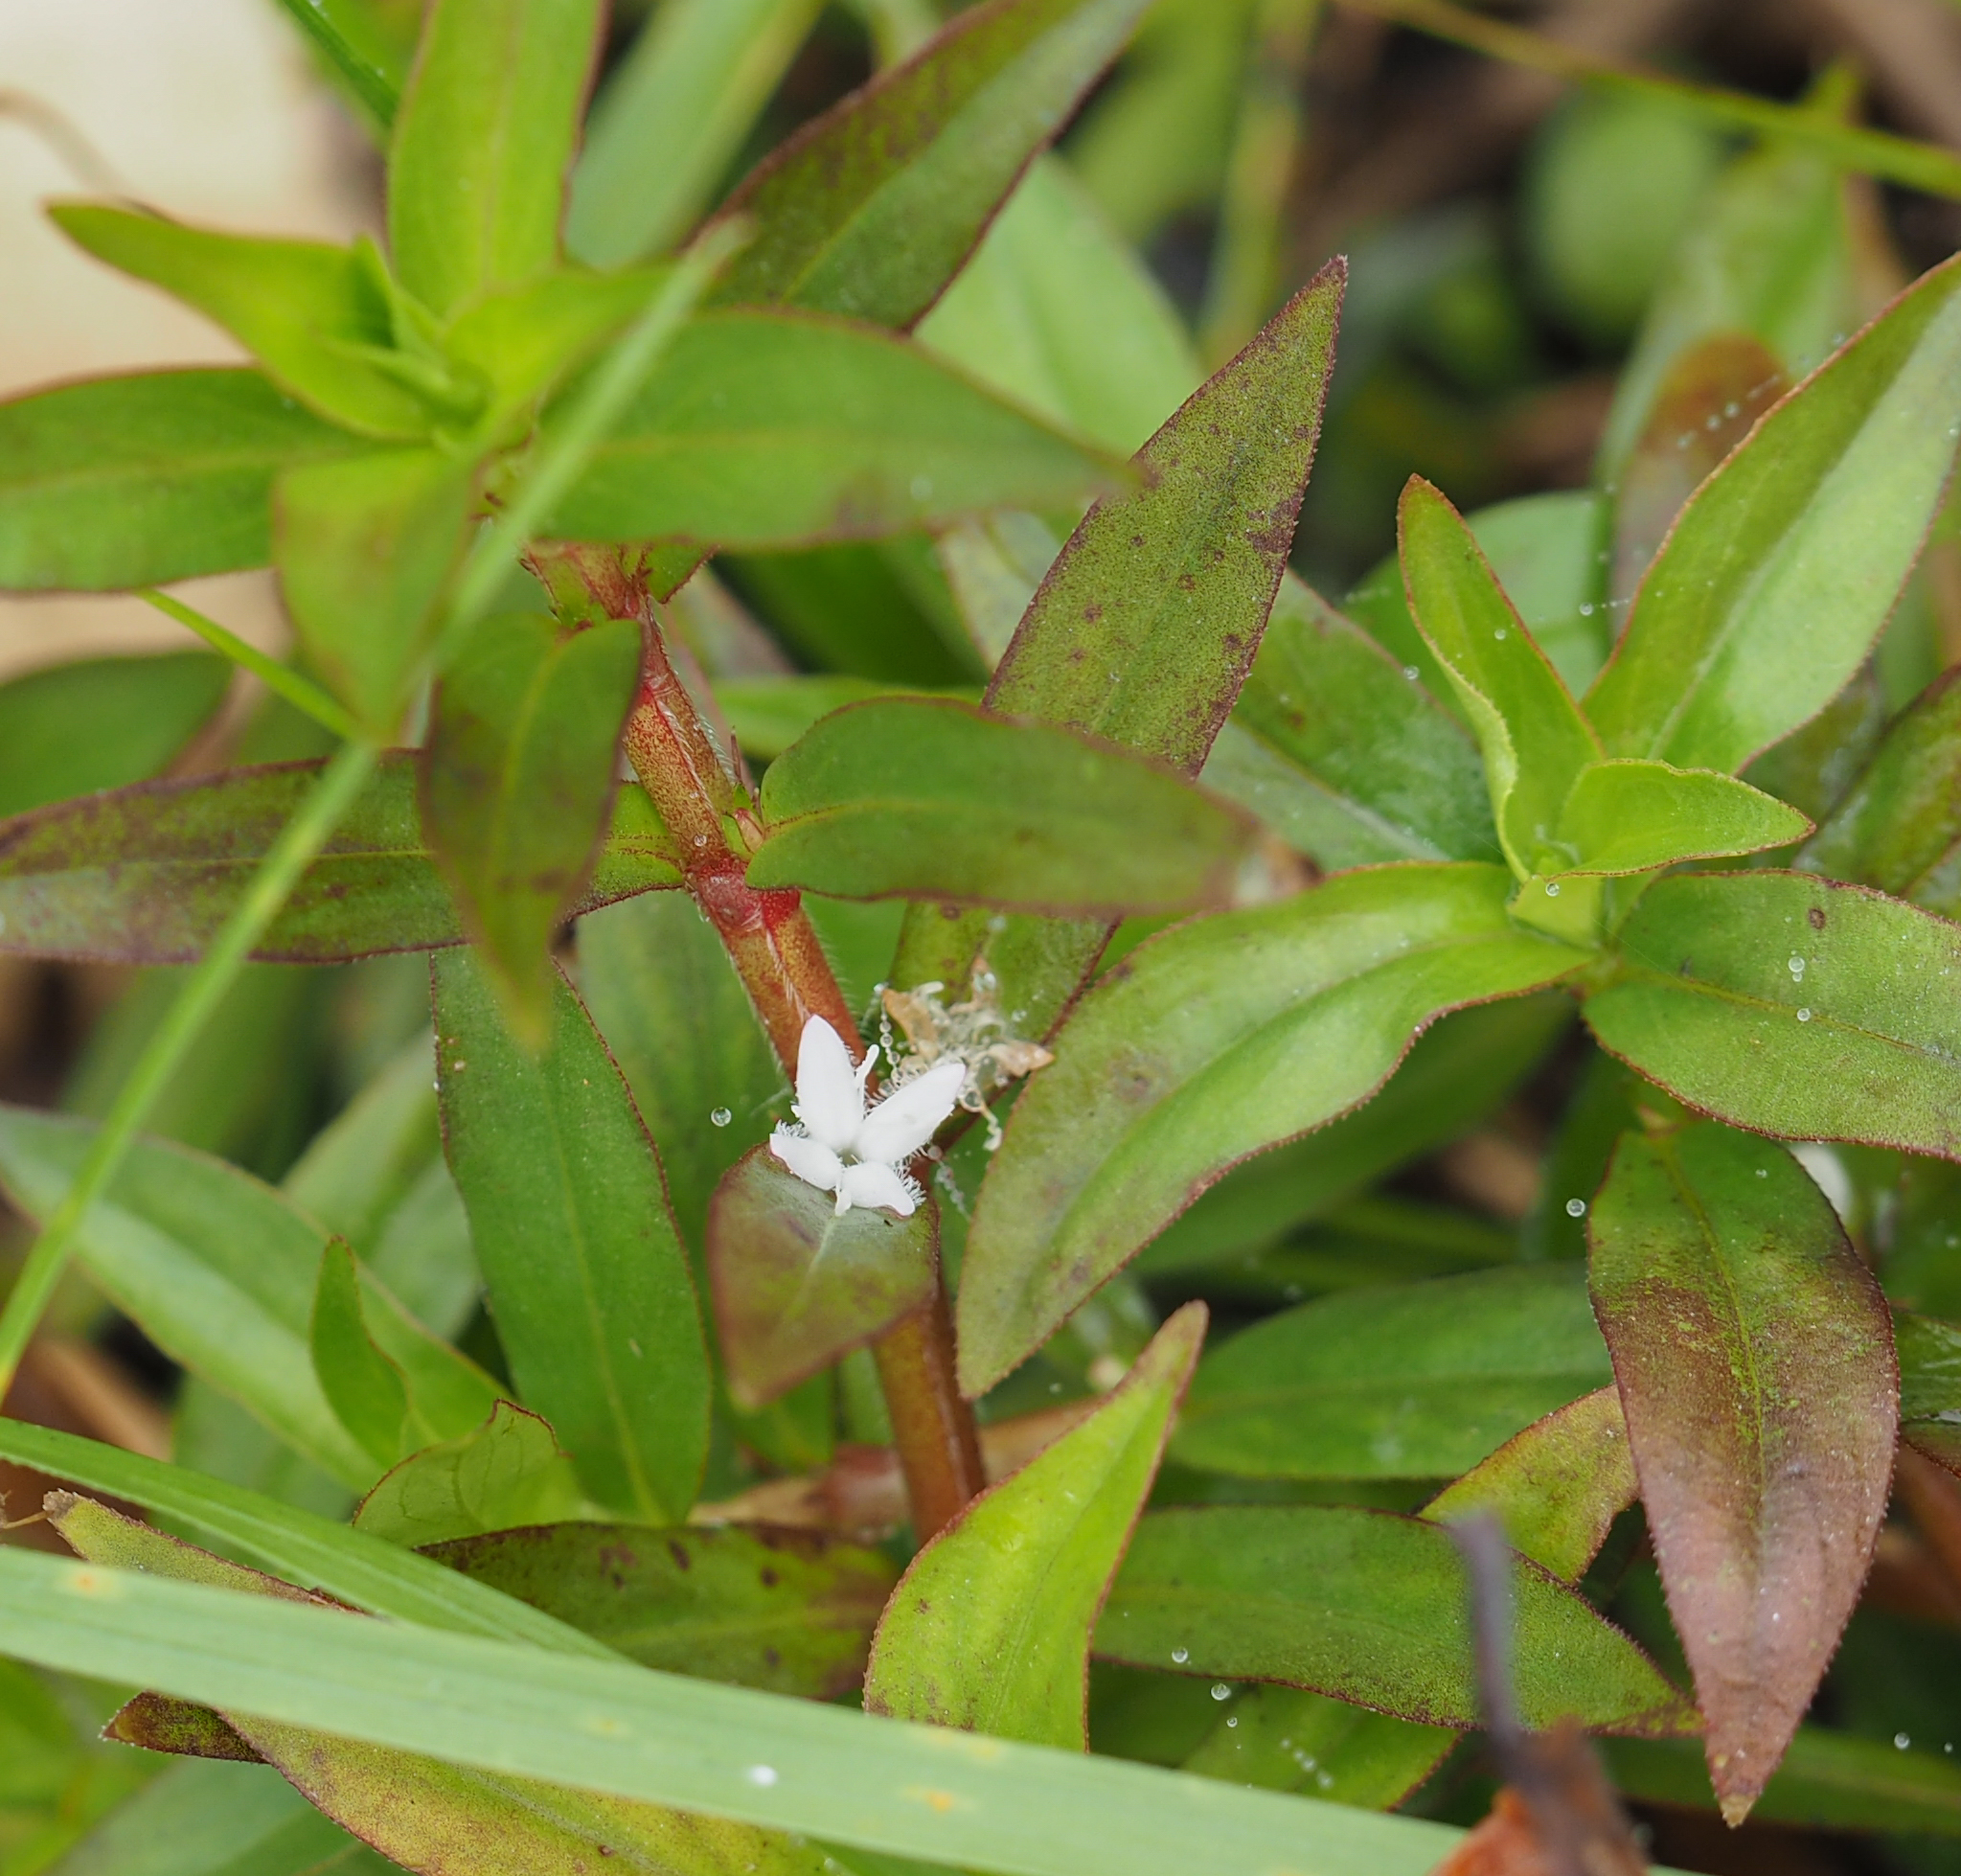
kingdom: Plantae
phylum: Tracheophyta
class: Magnoliopsida
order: Gentianales
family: Rubiaceae
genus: Diodia
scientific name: Diodia virginiana
